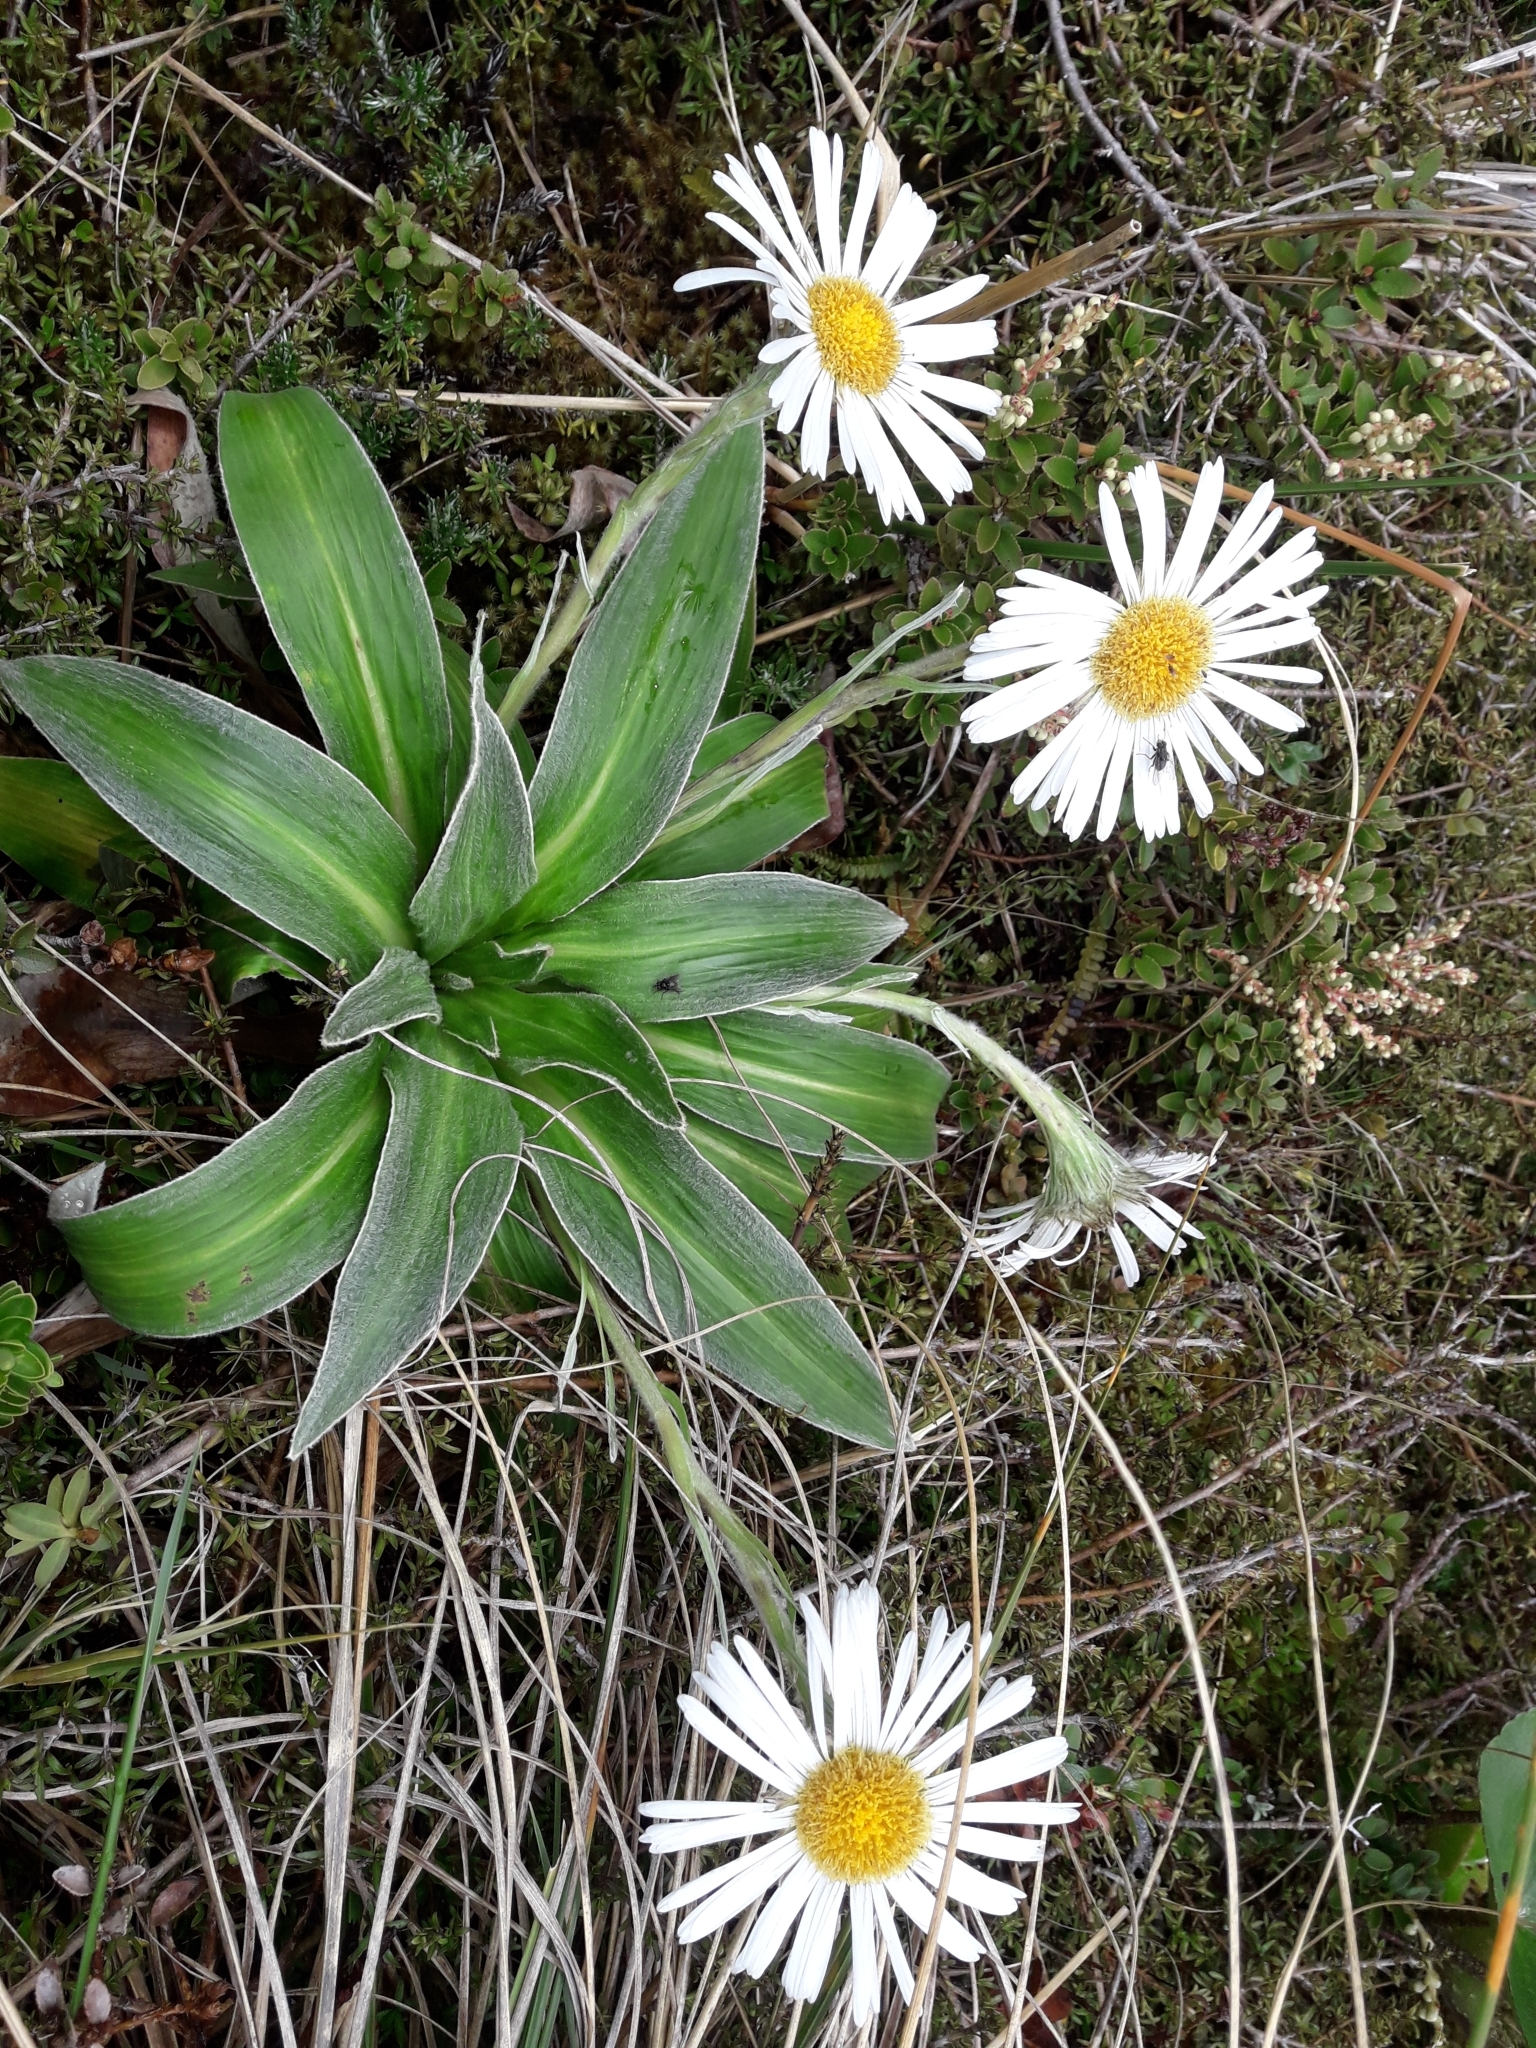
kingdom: Plantae
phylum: Tracheophyta
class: Magnoliopsida
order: Asterales
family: Asteraceae
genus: Celmisia
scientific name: Celmisia verbascifolia
